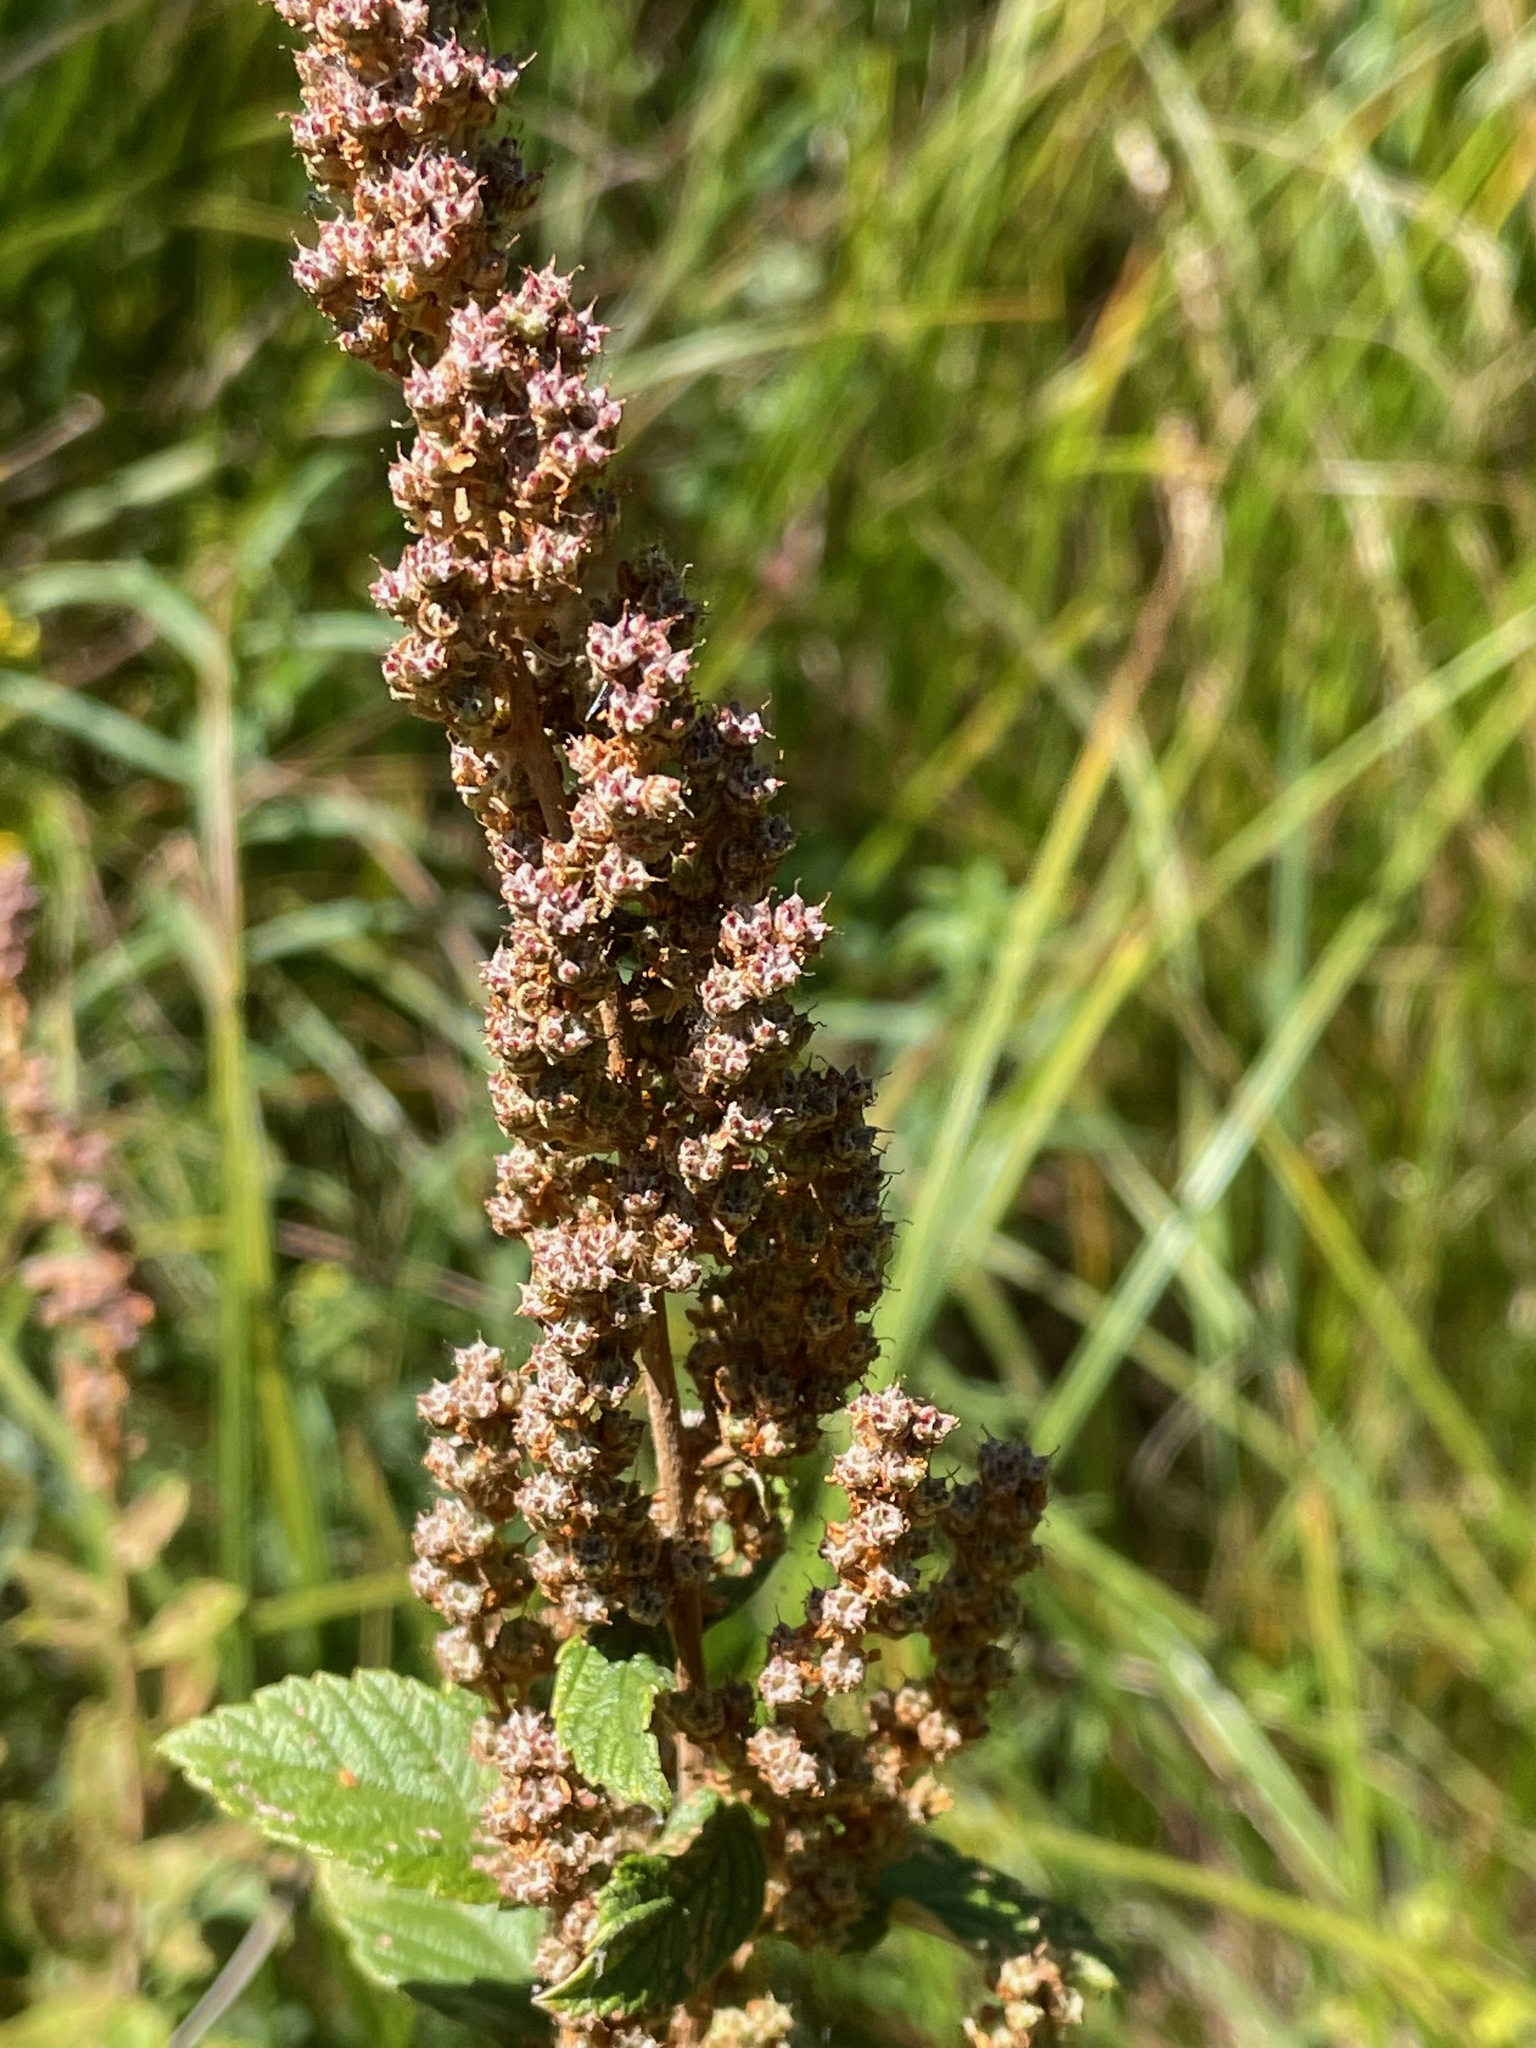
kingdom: Plantae
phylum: Tracheophyta
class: Magnoliopsida
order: Rosales
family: Rosaceae
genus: Spiraea
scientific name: Spiraea tomentosa
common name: Hardhack
